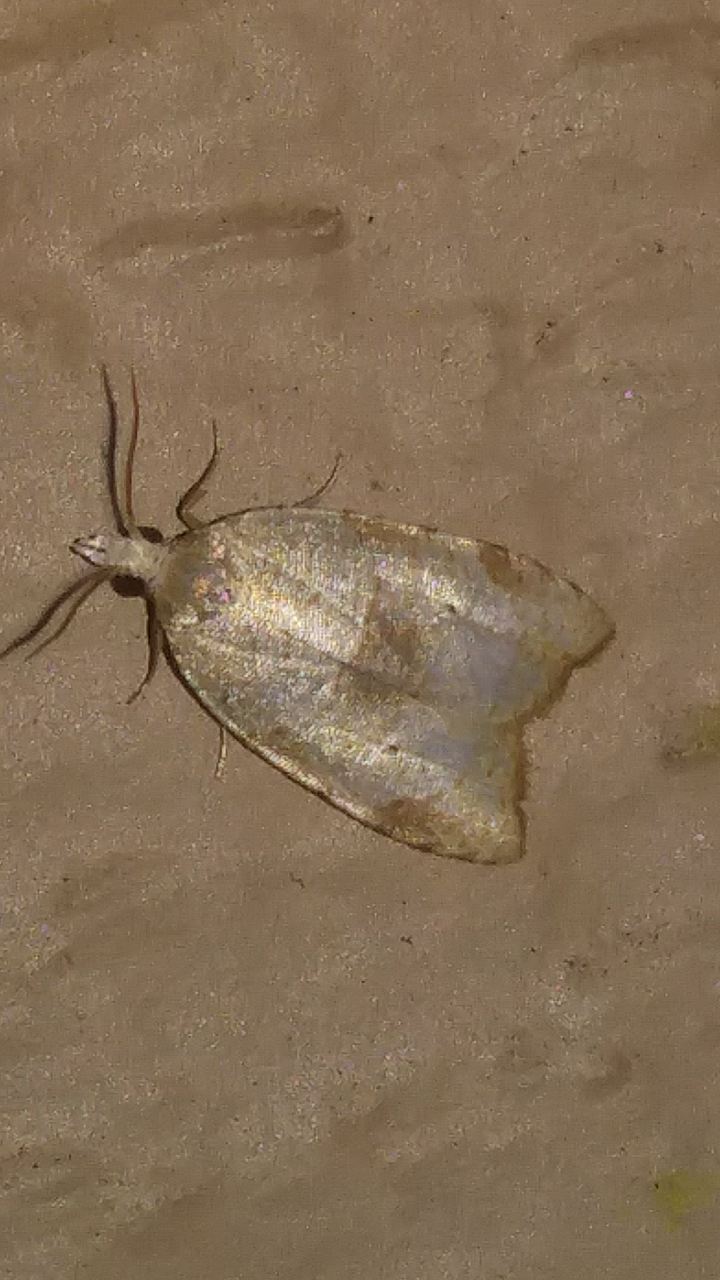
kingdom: Animalia
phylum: Arthropoda
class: Insecta
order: Lepidoptera
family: Tortricidae
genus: Coelostathma
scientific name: Coelostathma discopunctana
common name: Batman moth
